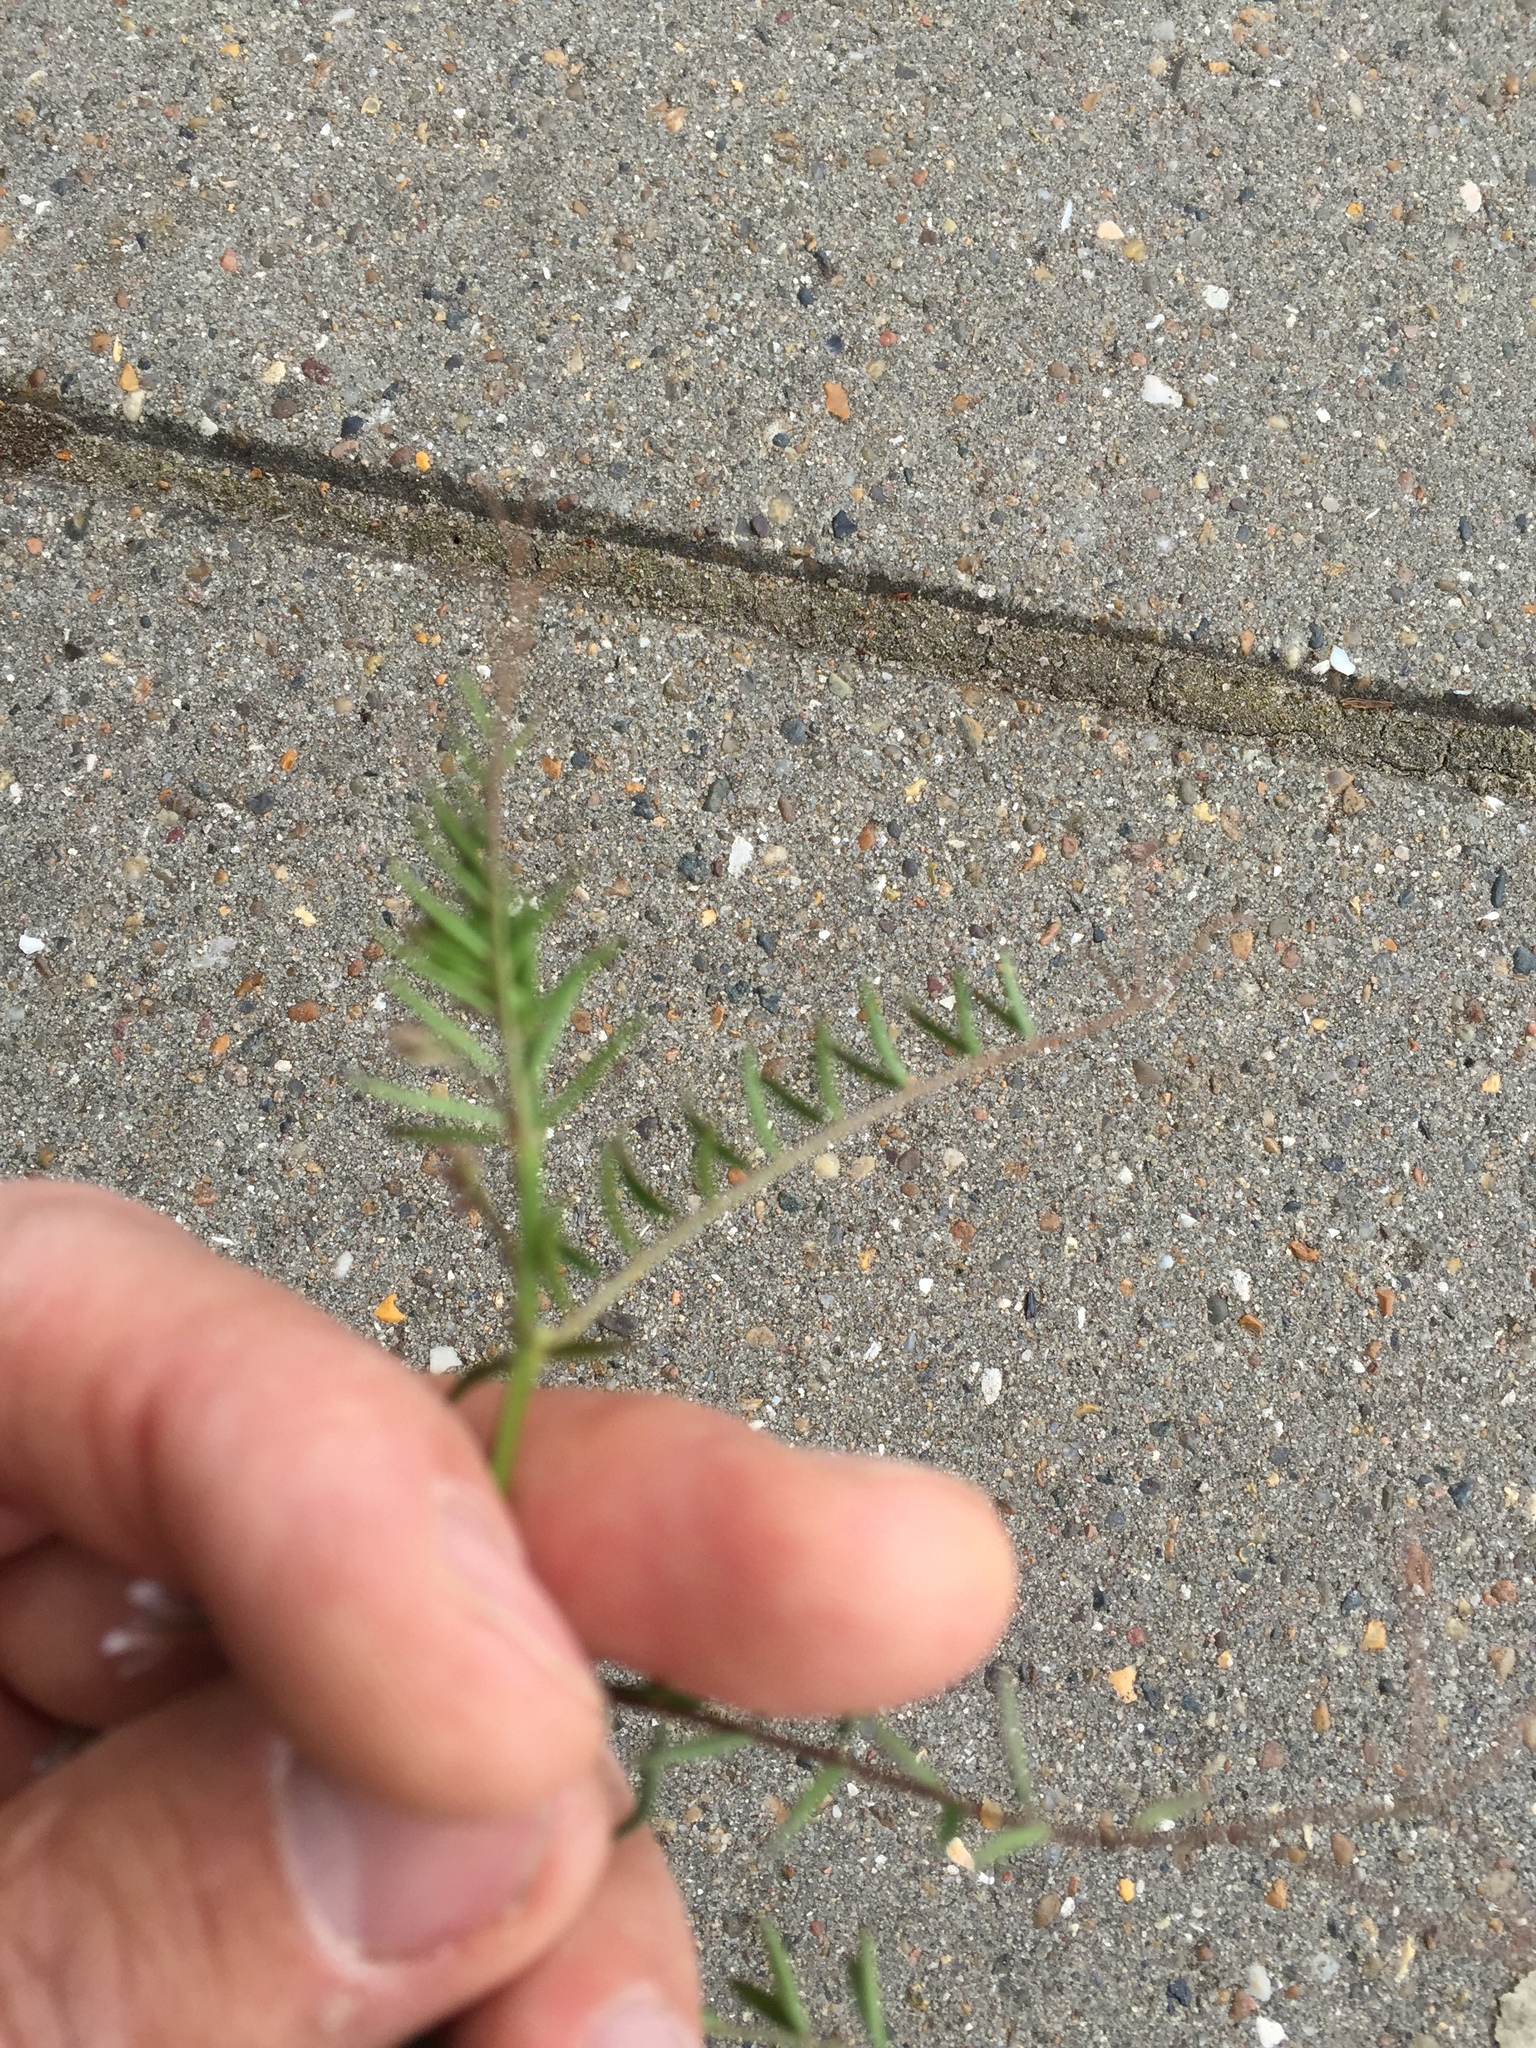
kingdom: Plantae
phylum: Tracheophyta
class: Magnoliopsida
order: Fabales
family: Fabaceae
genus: Vicia
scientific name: Vicia hirsuta
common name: Tiny vetch
